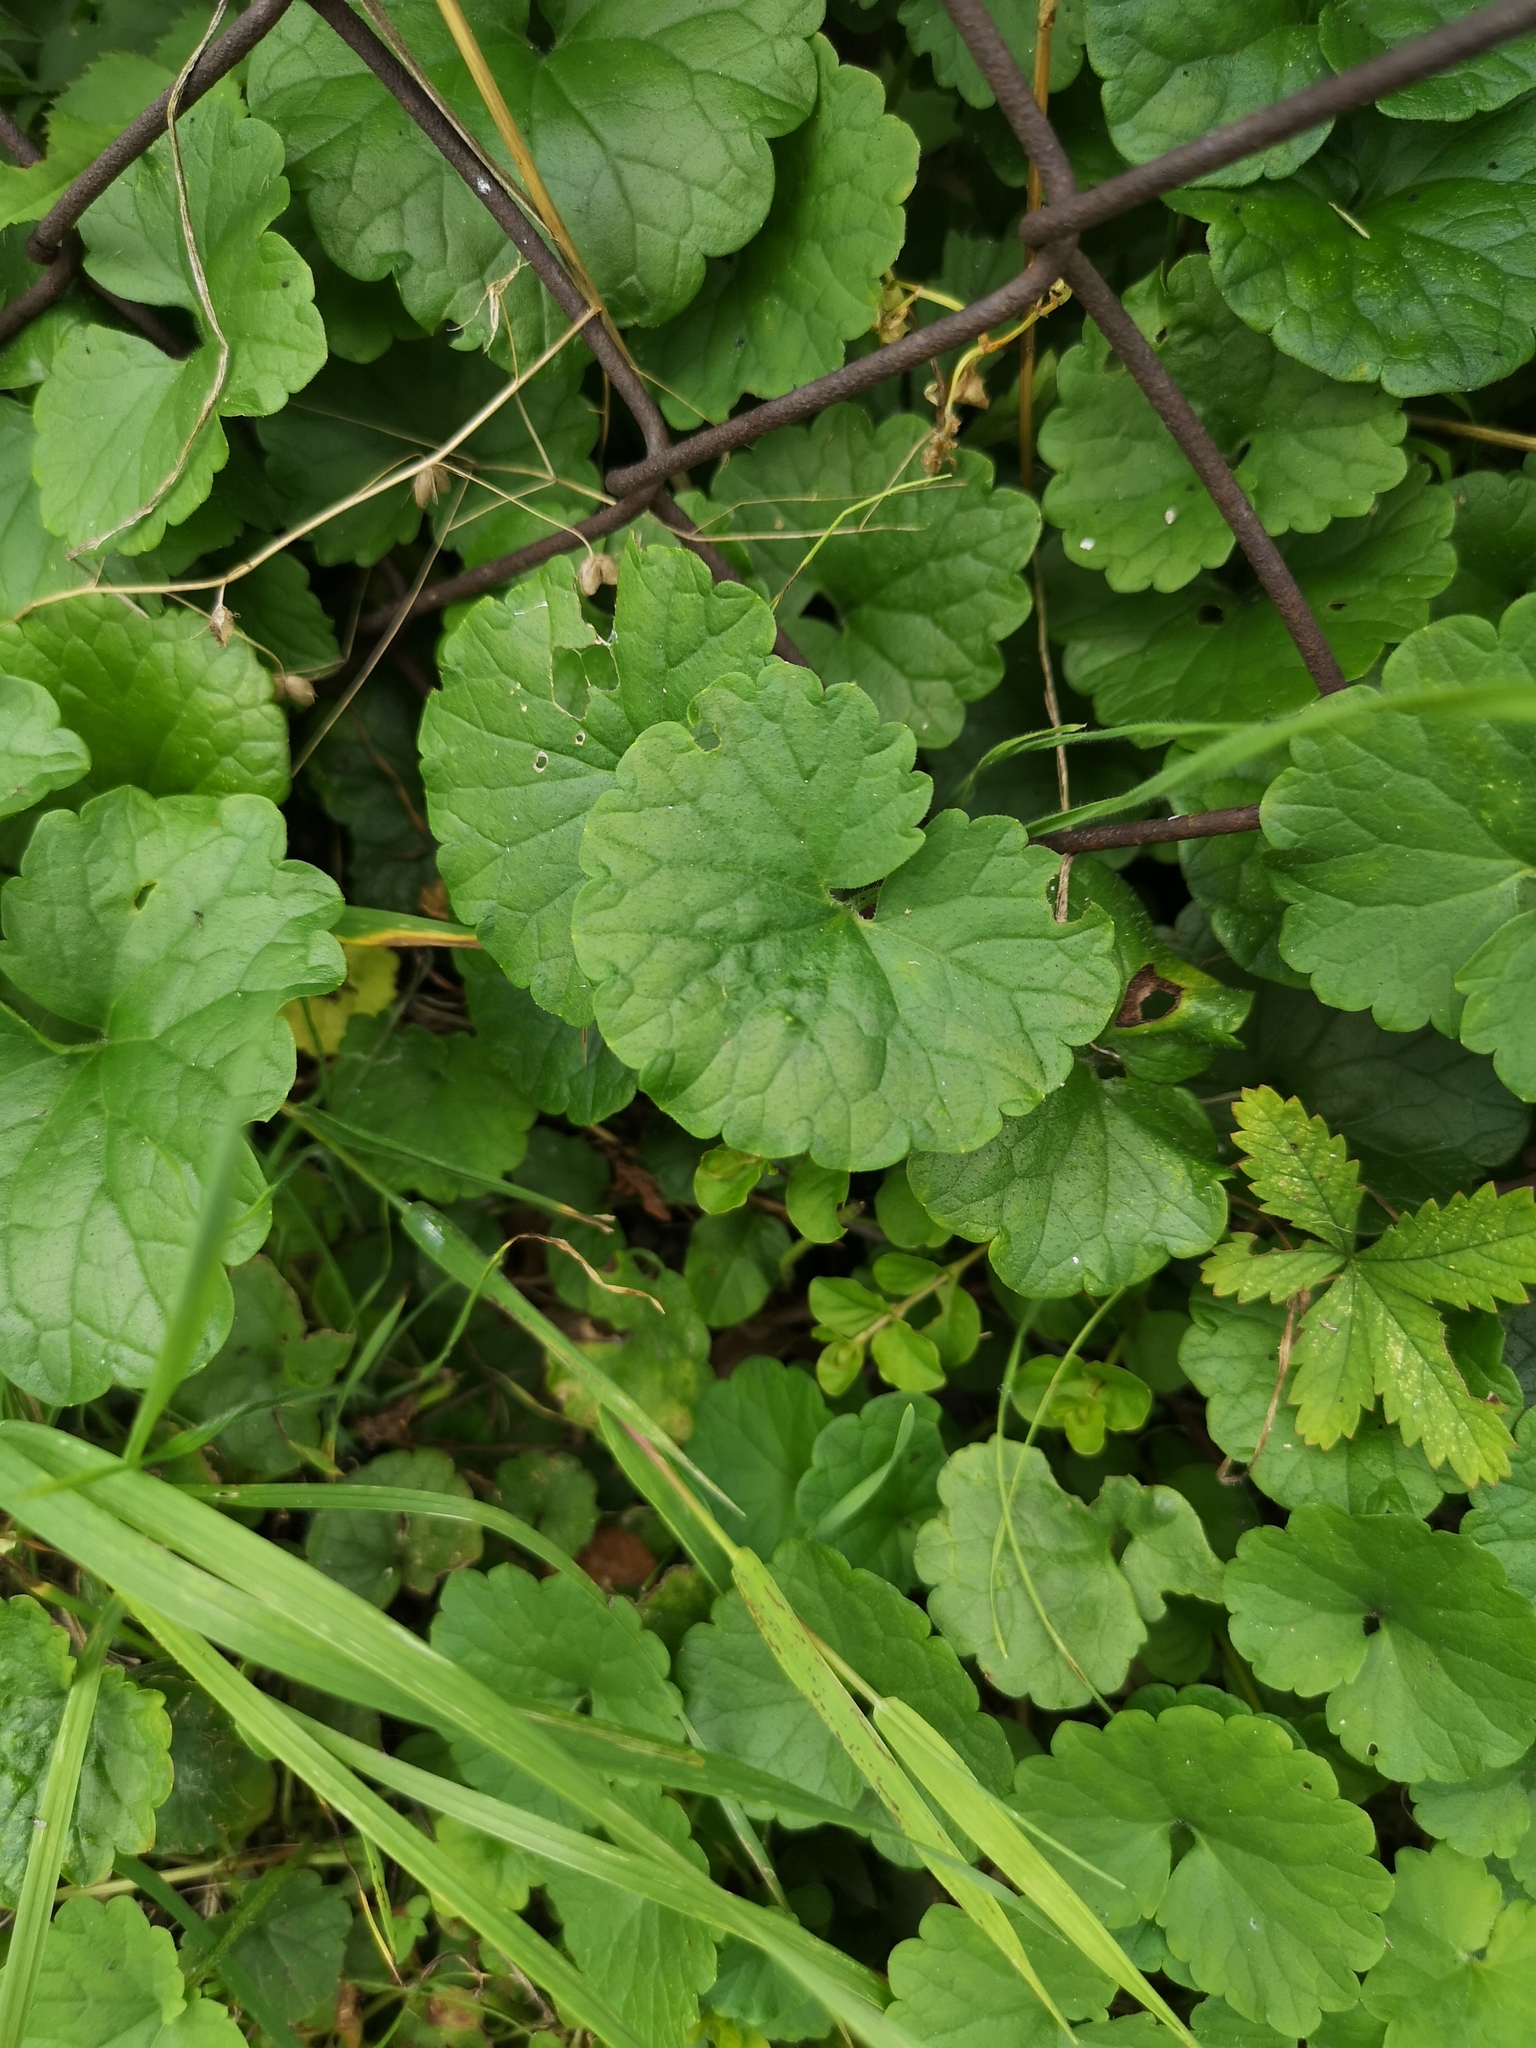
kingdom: Plantae
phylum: Tracheophyta
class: Magnoliopsida
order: Lamiales
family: Lamiaceae
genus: Glechoma
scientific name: Glechoma hederacea
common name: Ground ivy
